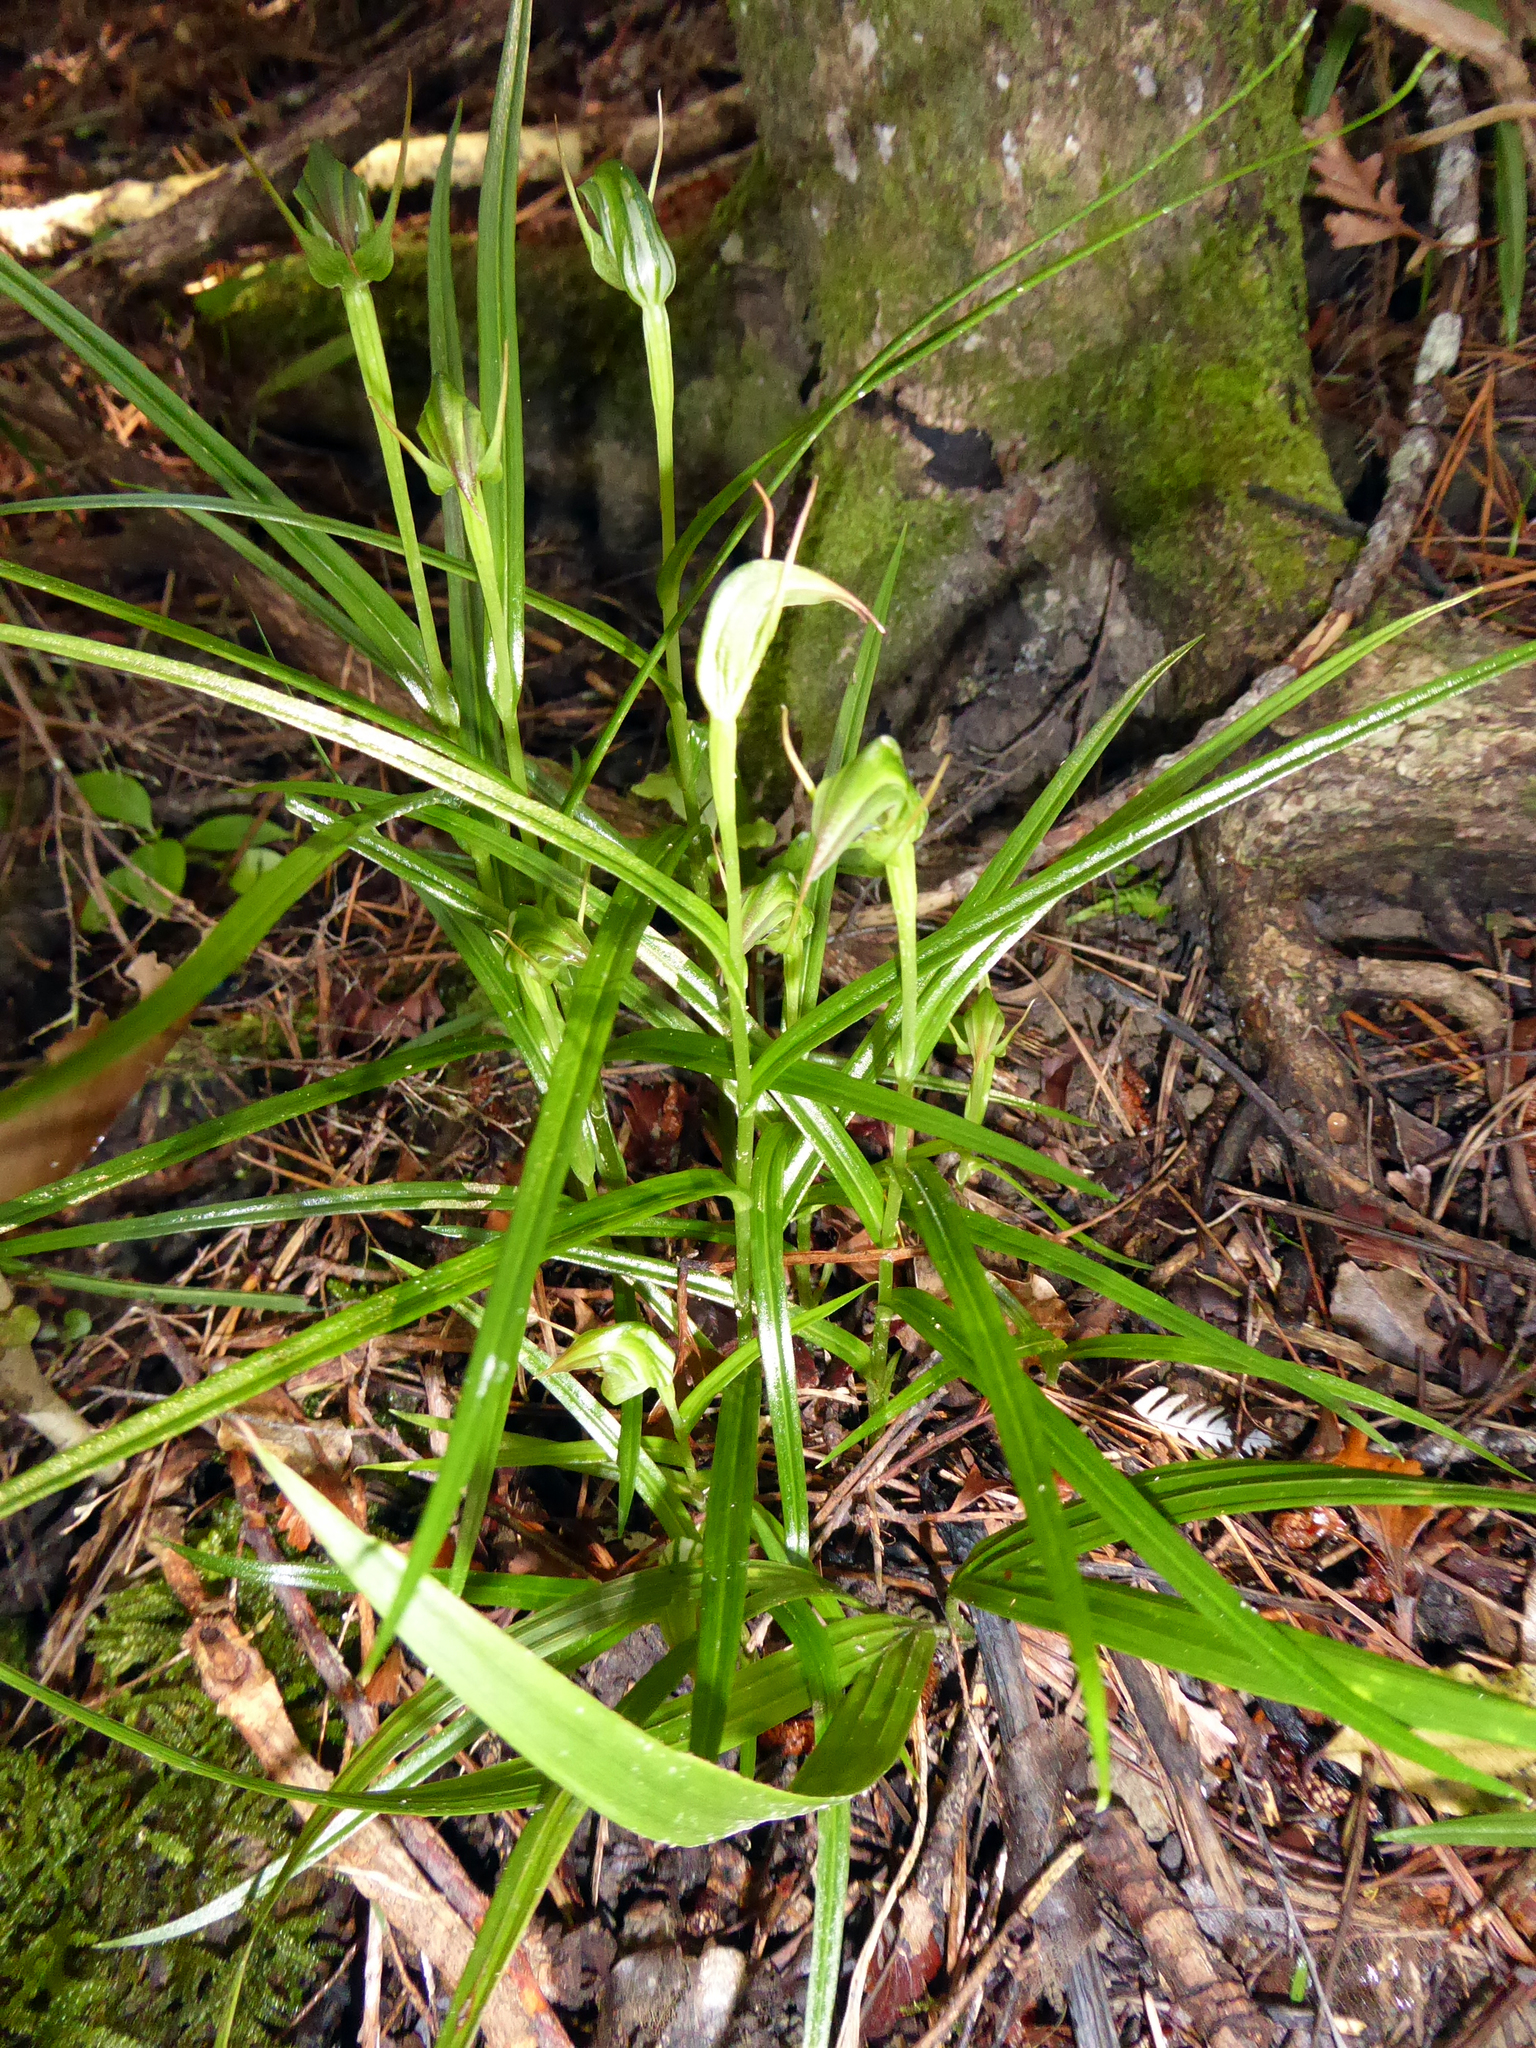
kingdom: Plantae
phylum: Tracheophyta
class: Liliopsida
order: Asparagales
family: Orchidaceae
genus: Pterostylis
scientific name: Pterostylis graminea
